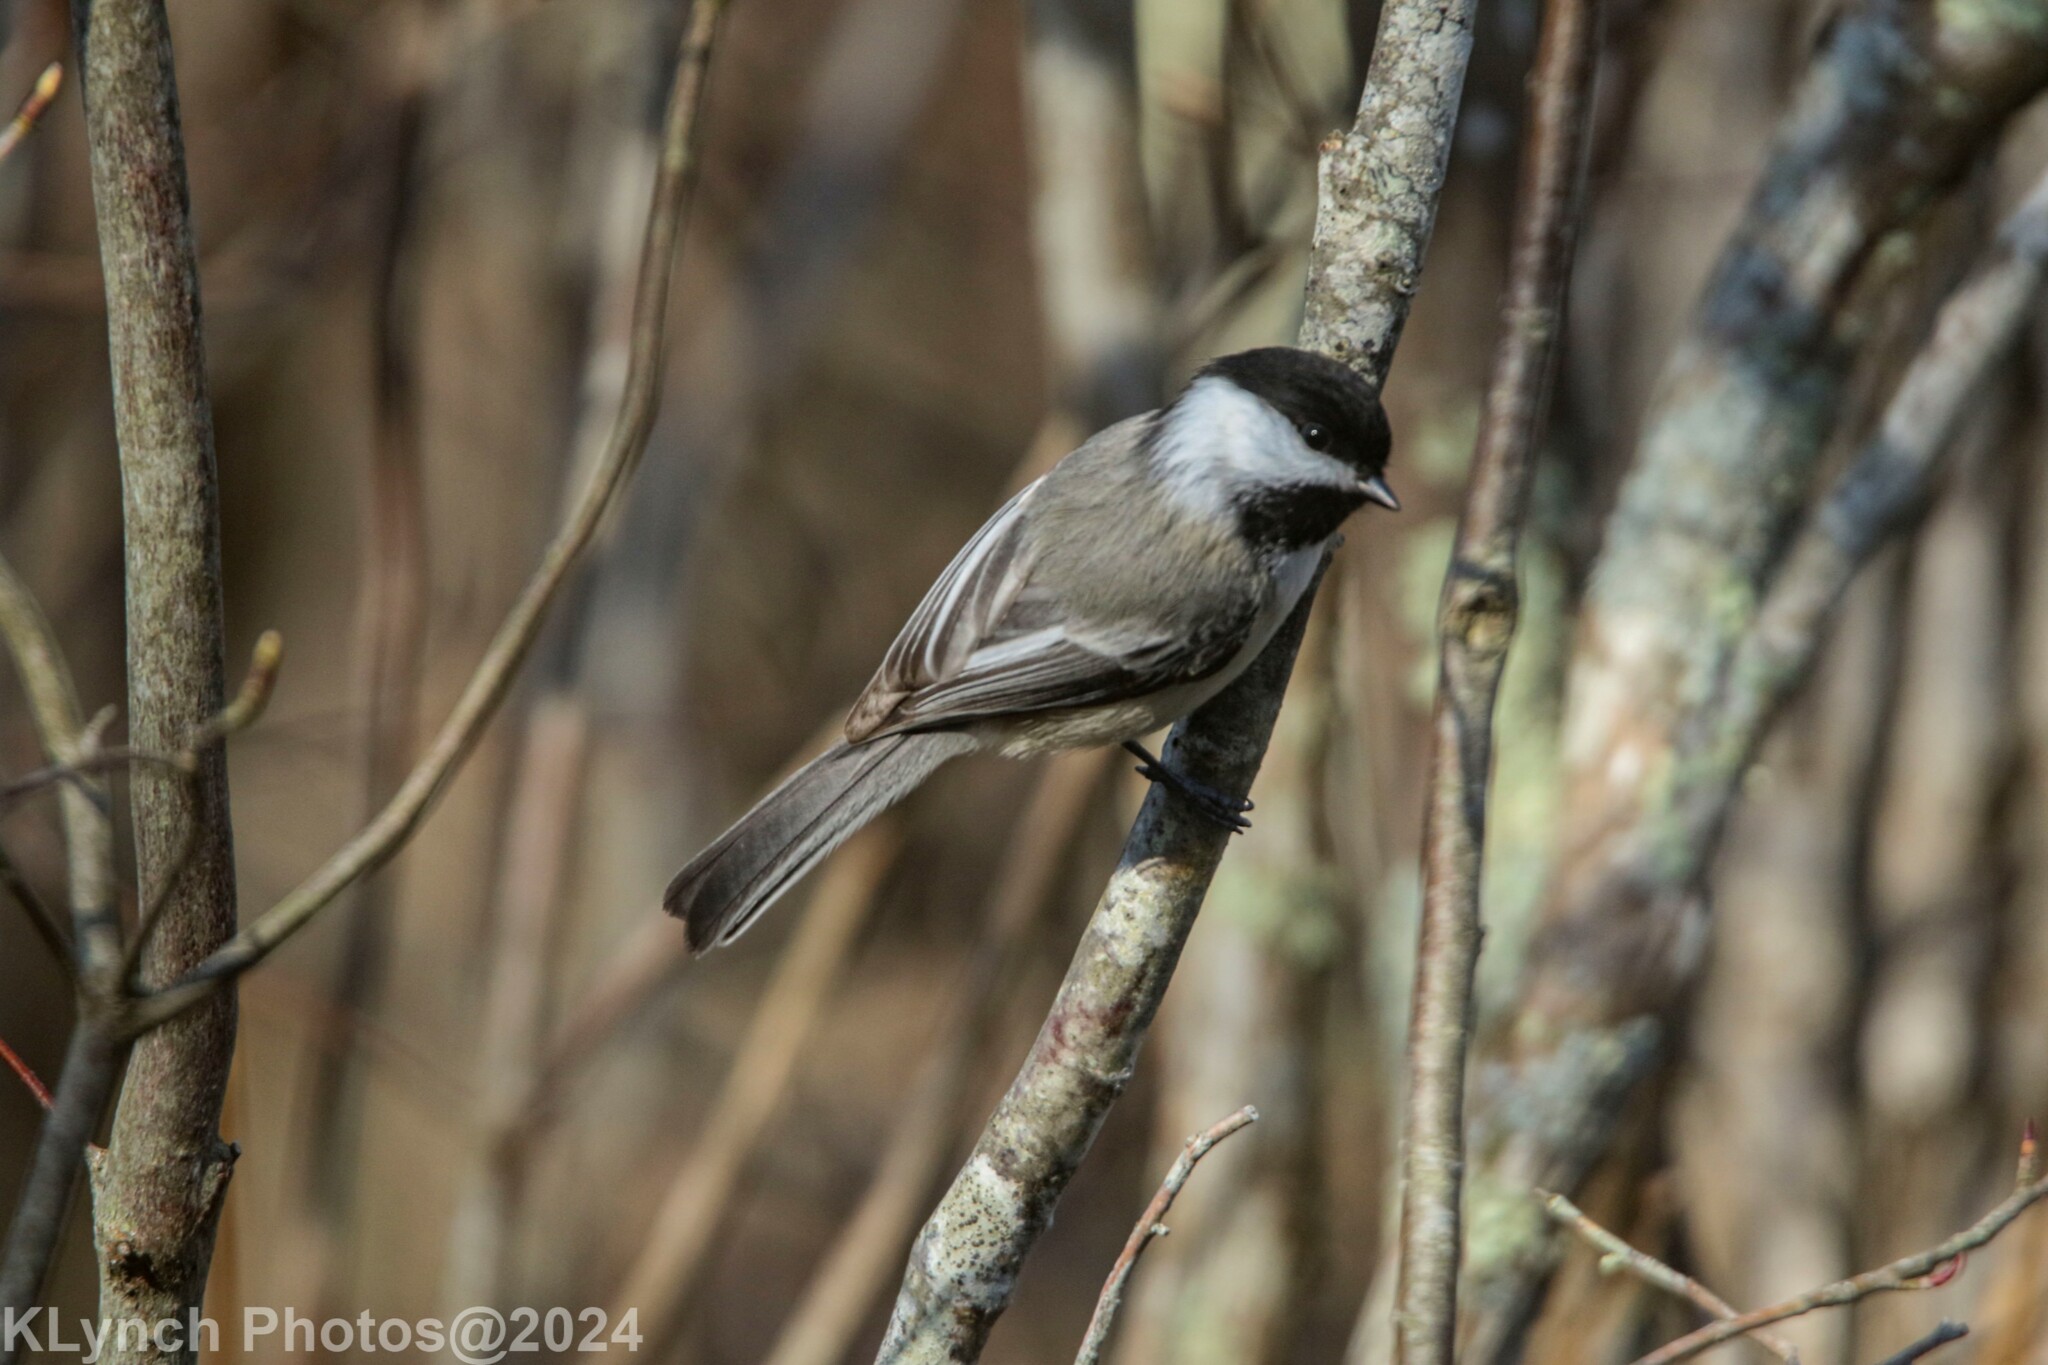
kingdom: Animalia
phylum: Chordata
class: Aves
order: Passeriformes
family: Paridae
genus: Poecile
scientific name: Poecile atricapillus
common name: Black-capped chickadee
